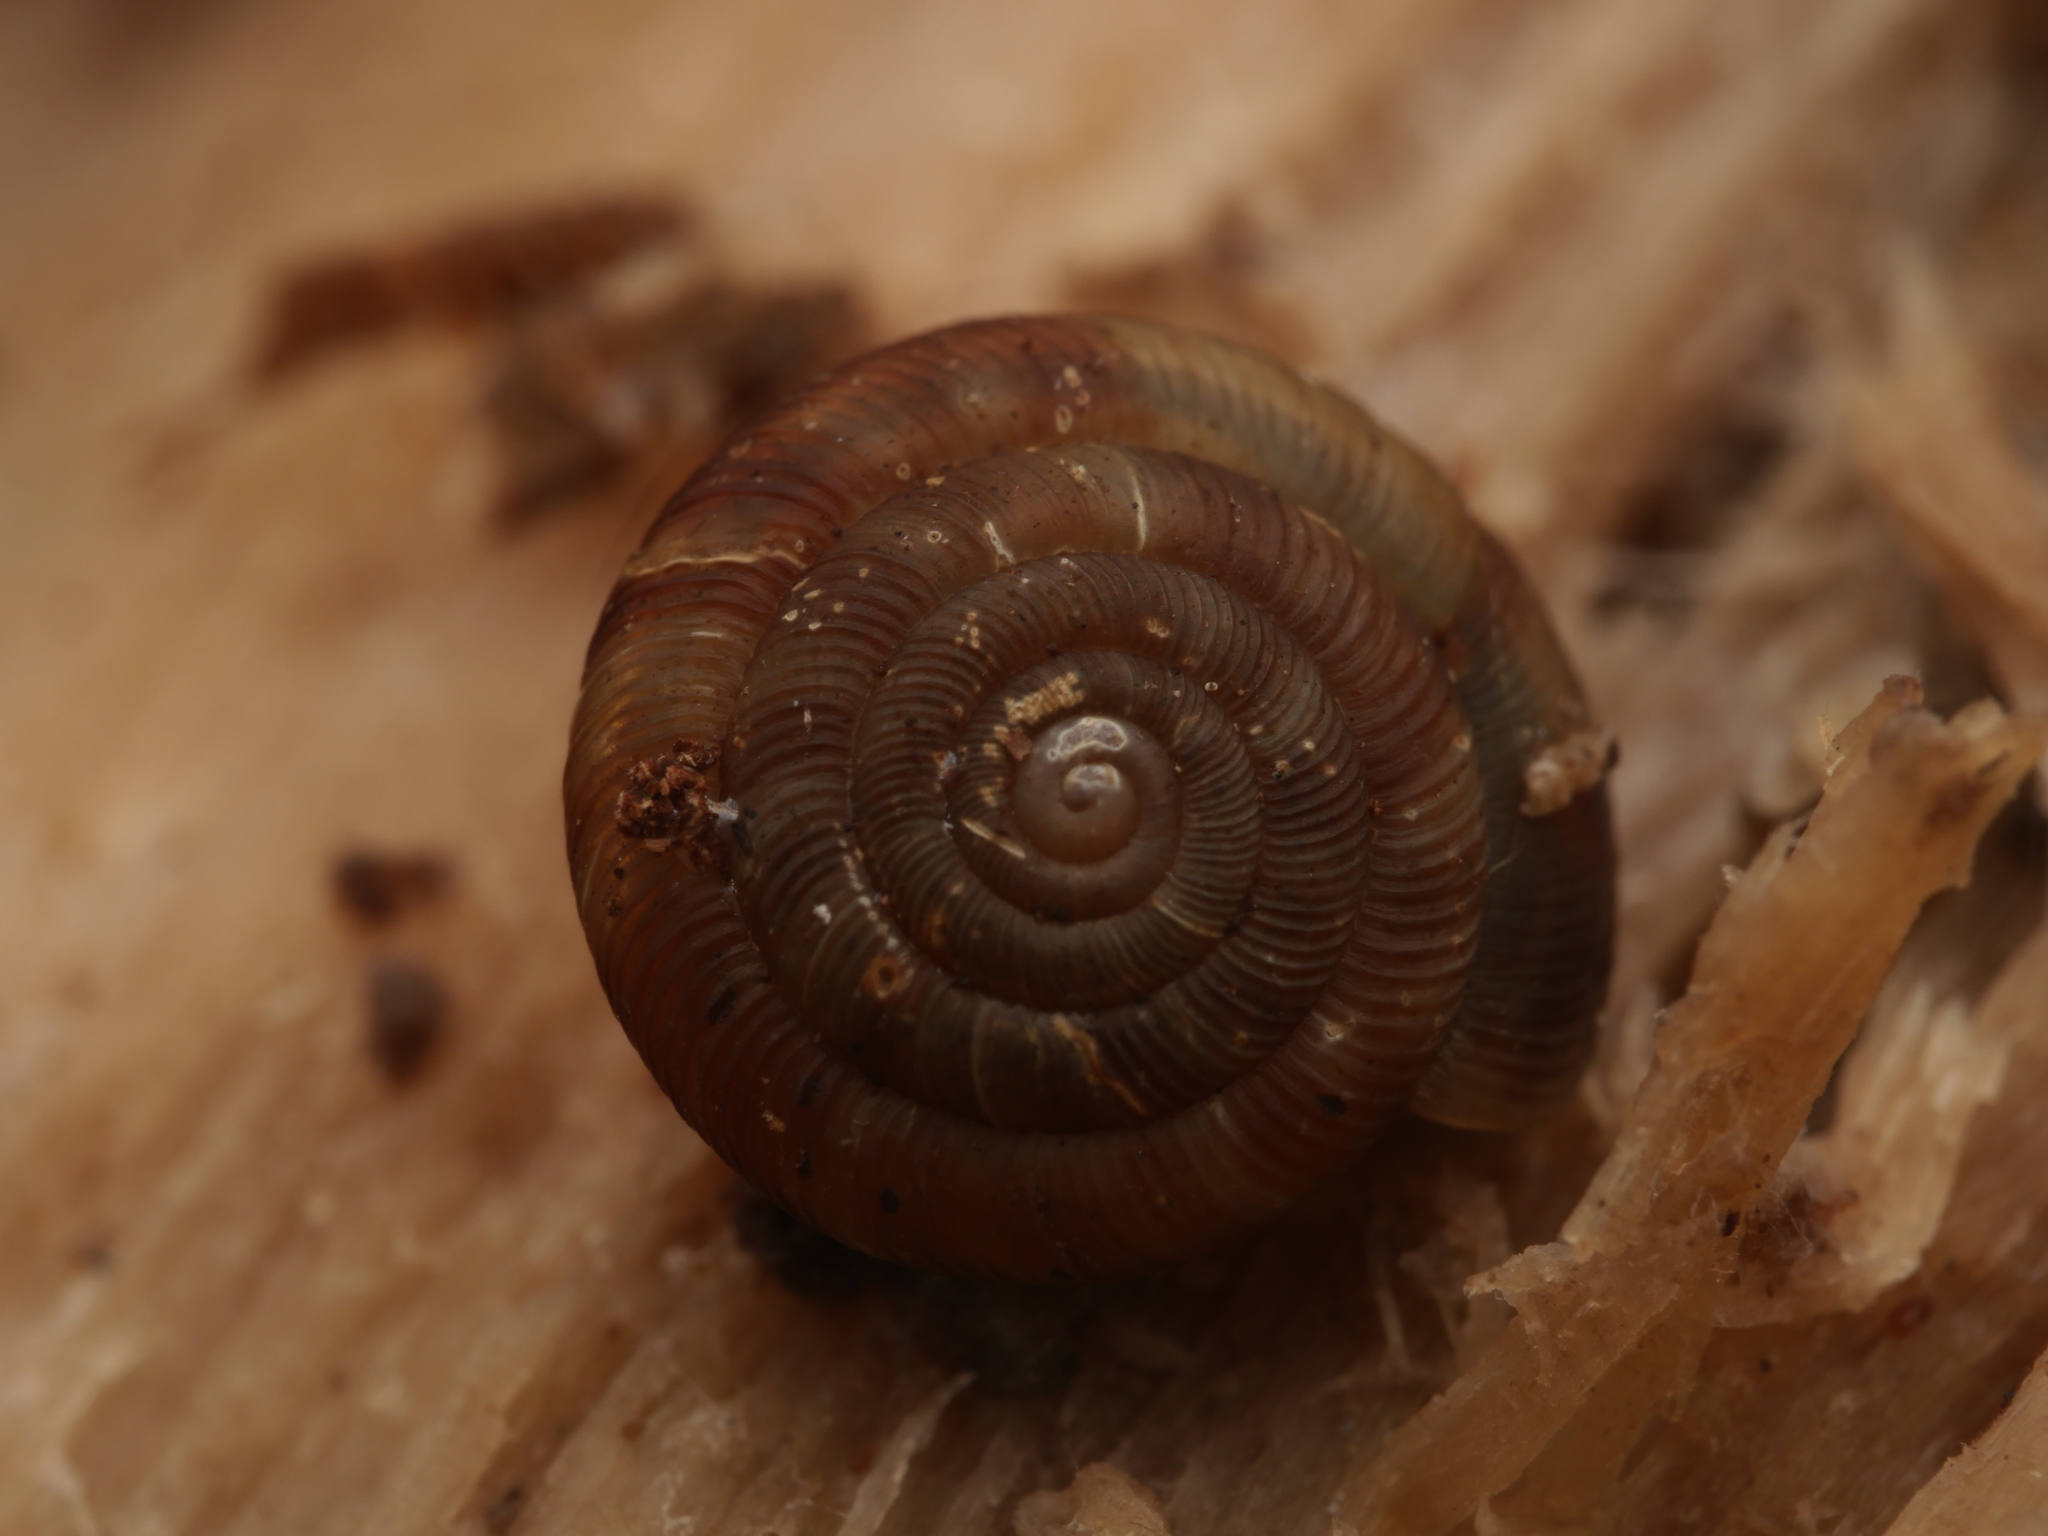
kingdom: Animalia
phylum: Mollusca
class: Gastropoda
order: Stylommatophora
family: Discidae
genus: Discus
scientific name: Discus rotundatus
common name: Rounded snail
